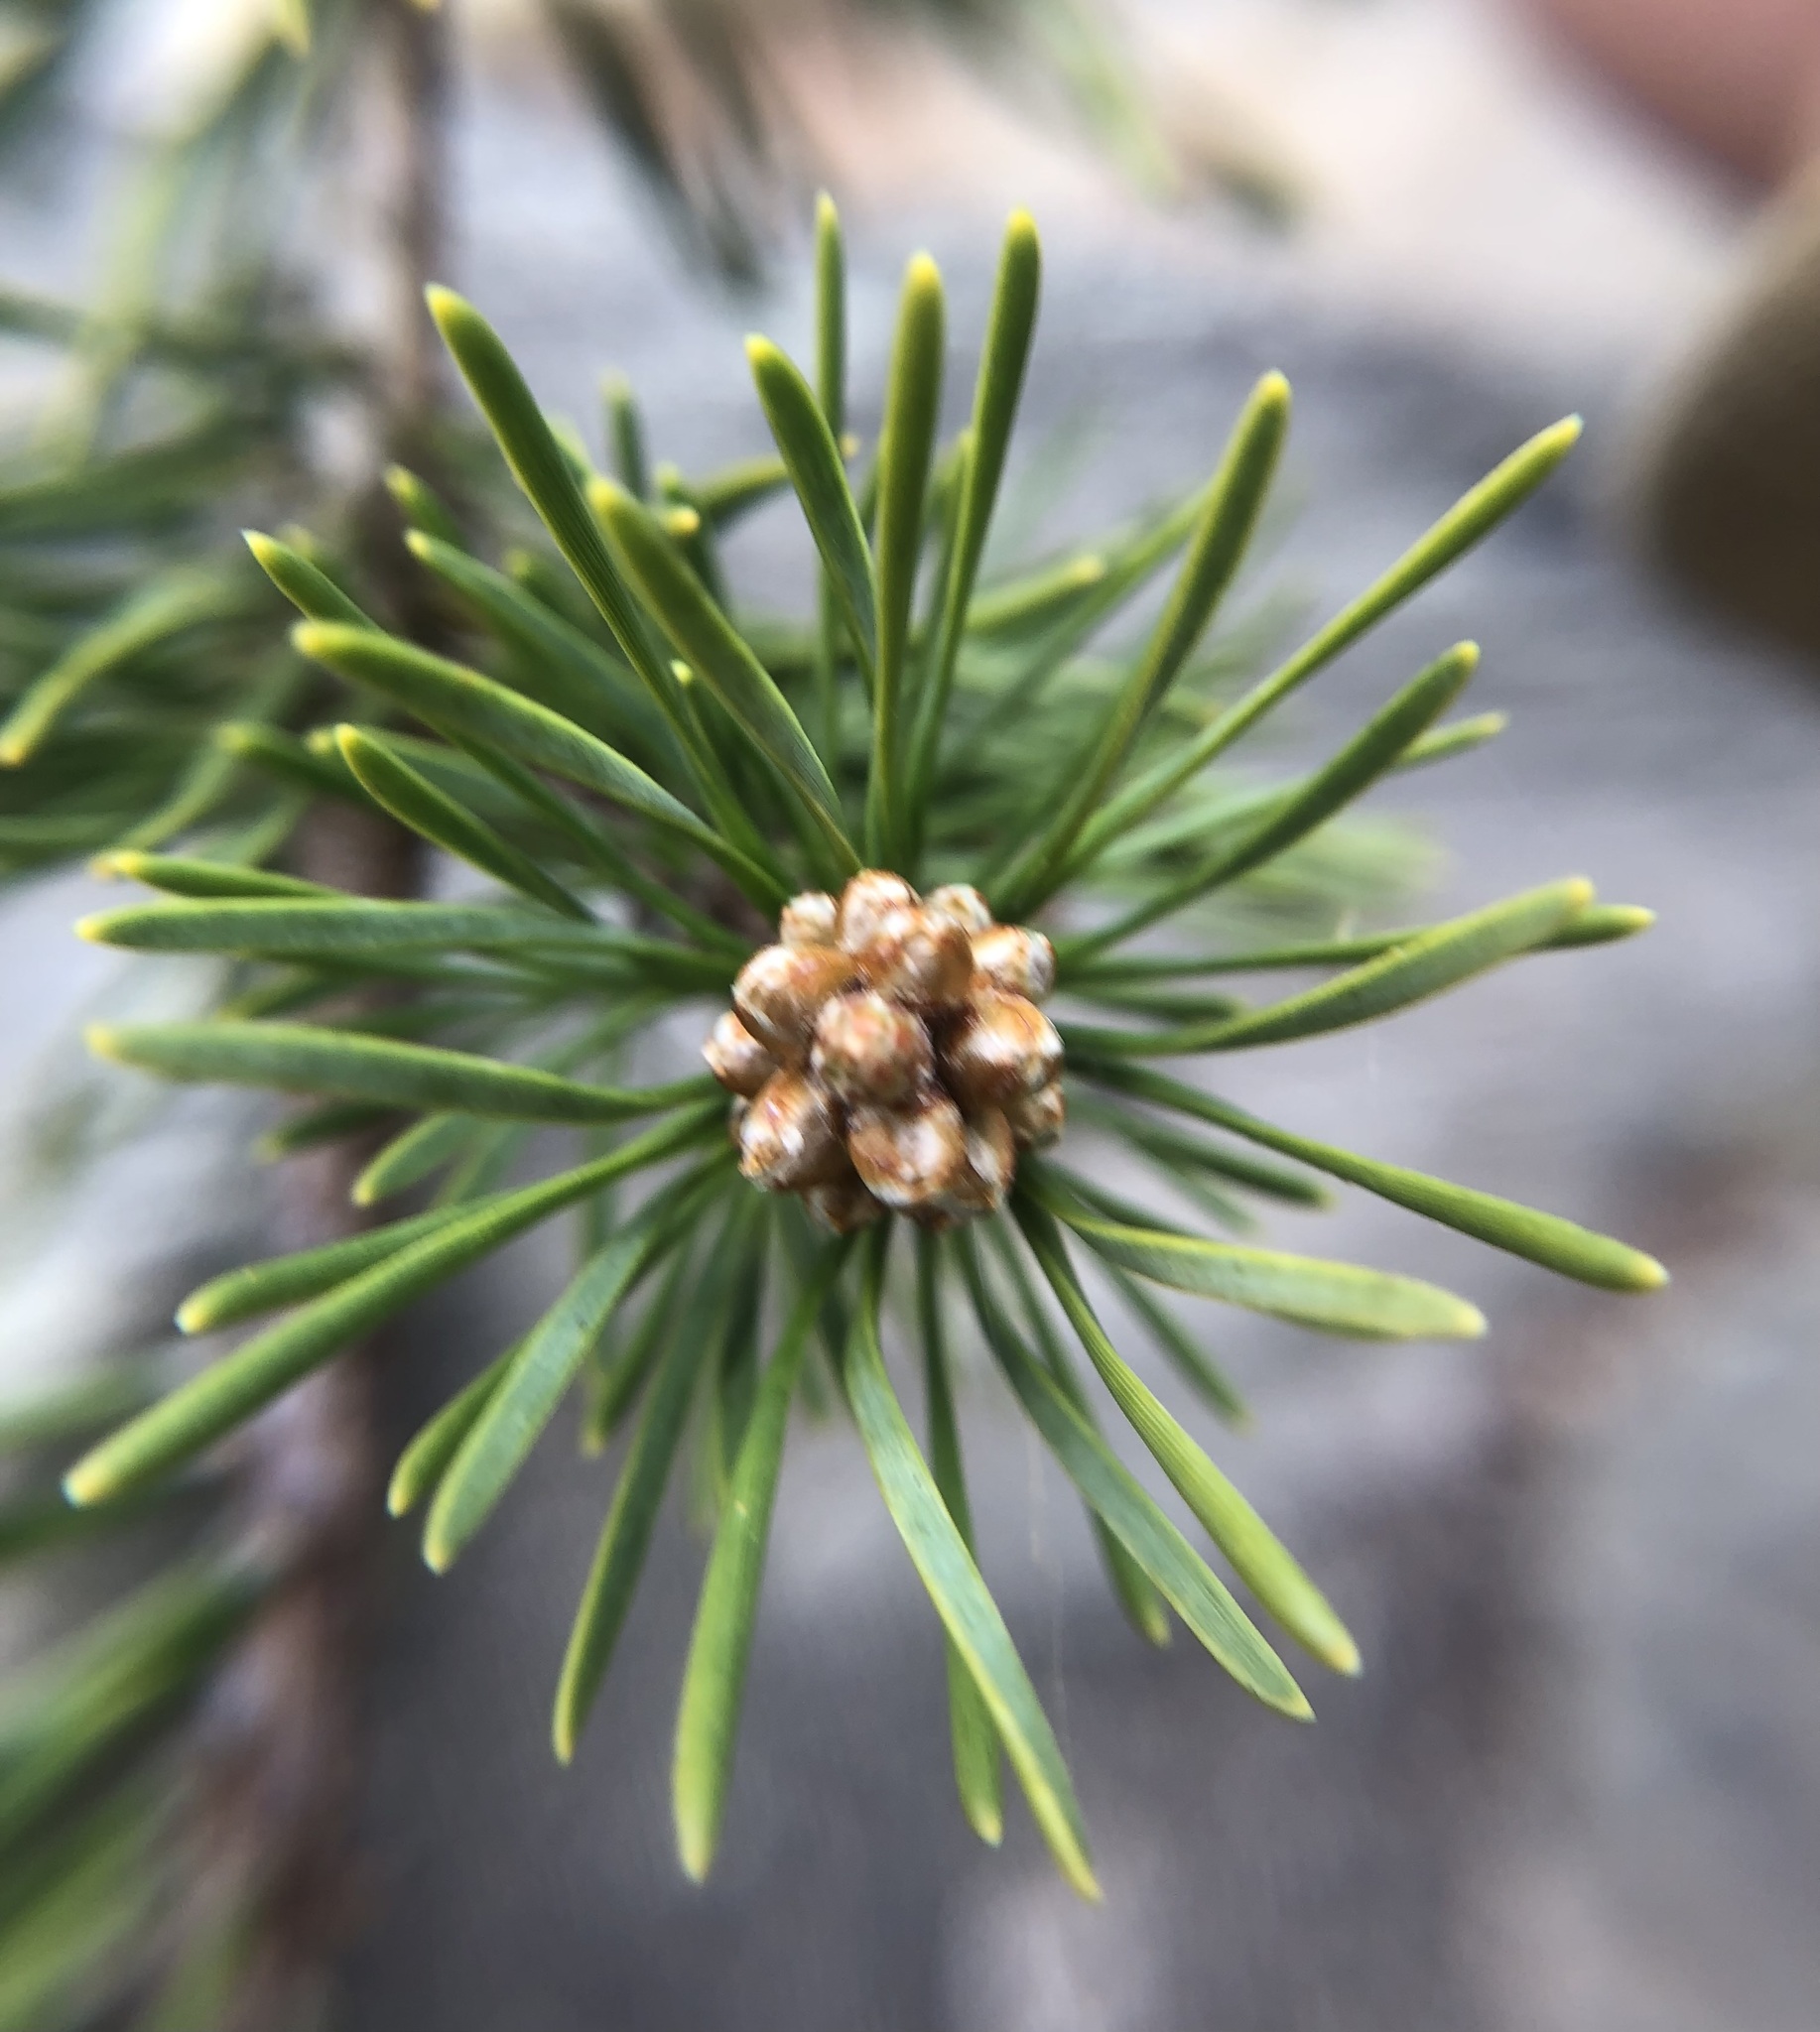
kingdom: Plantae
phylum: Tracheophyta
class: Pinopsida
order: Pinales
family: Pinaceae
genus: Pinus
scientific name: Pinus virginiana
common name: Scrub pine
